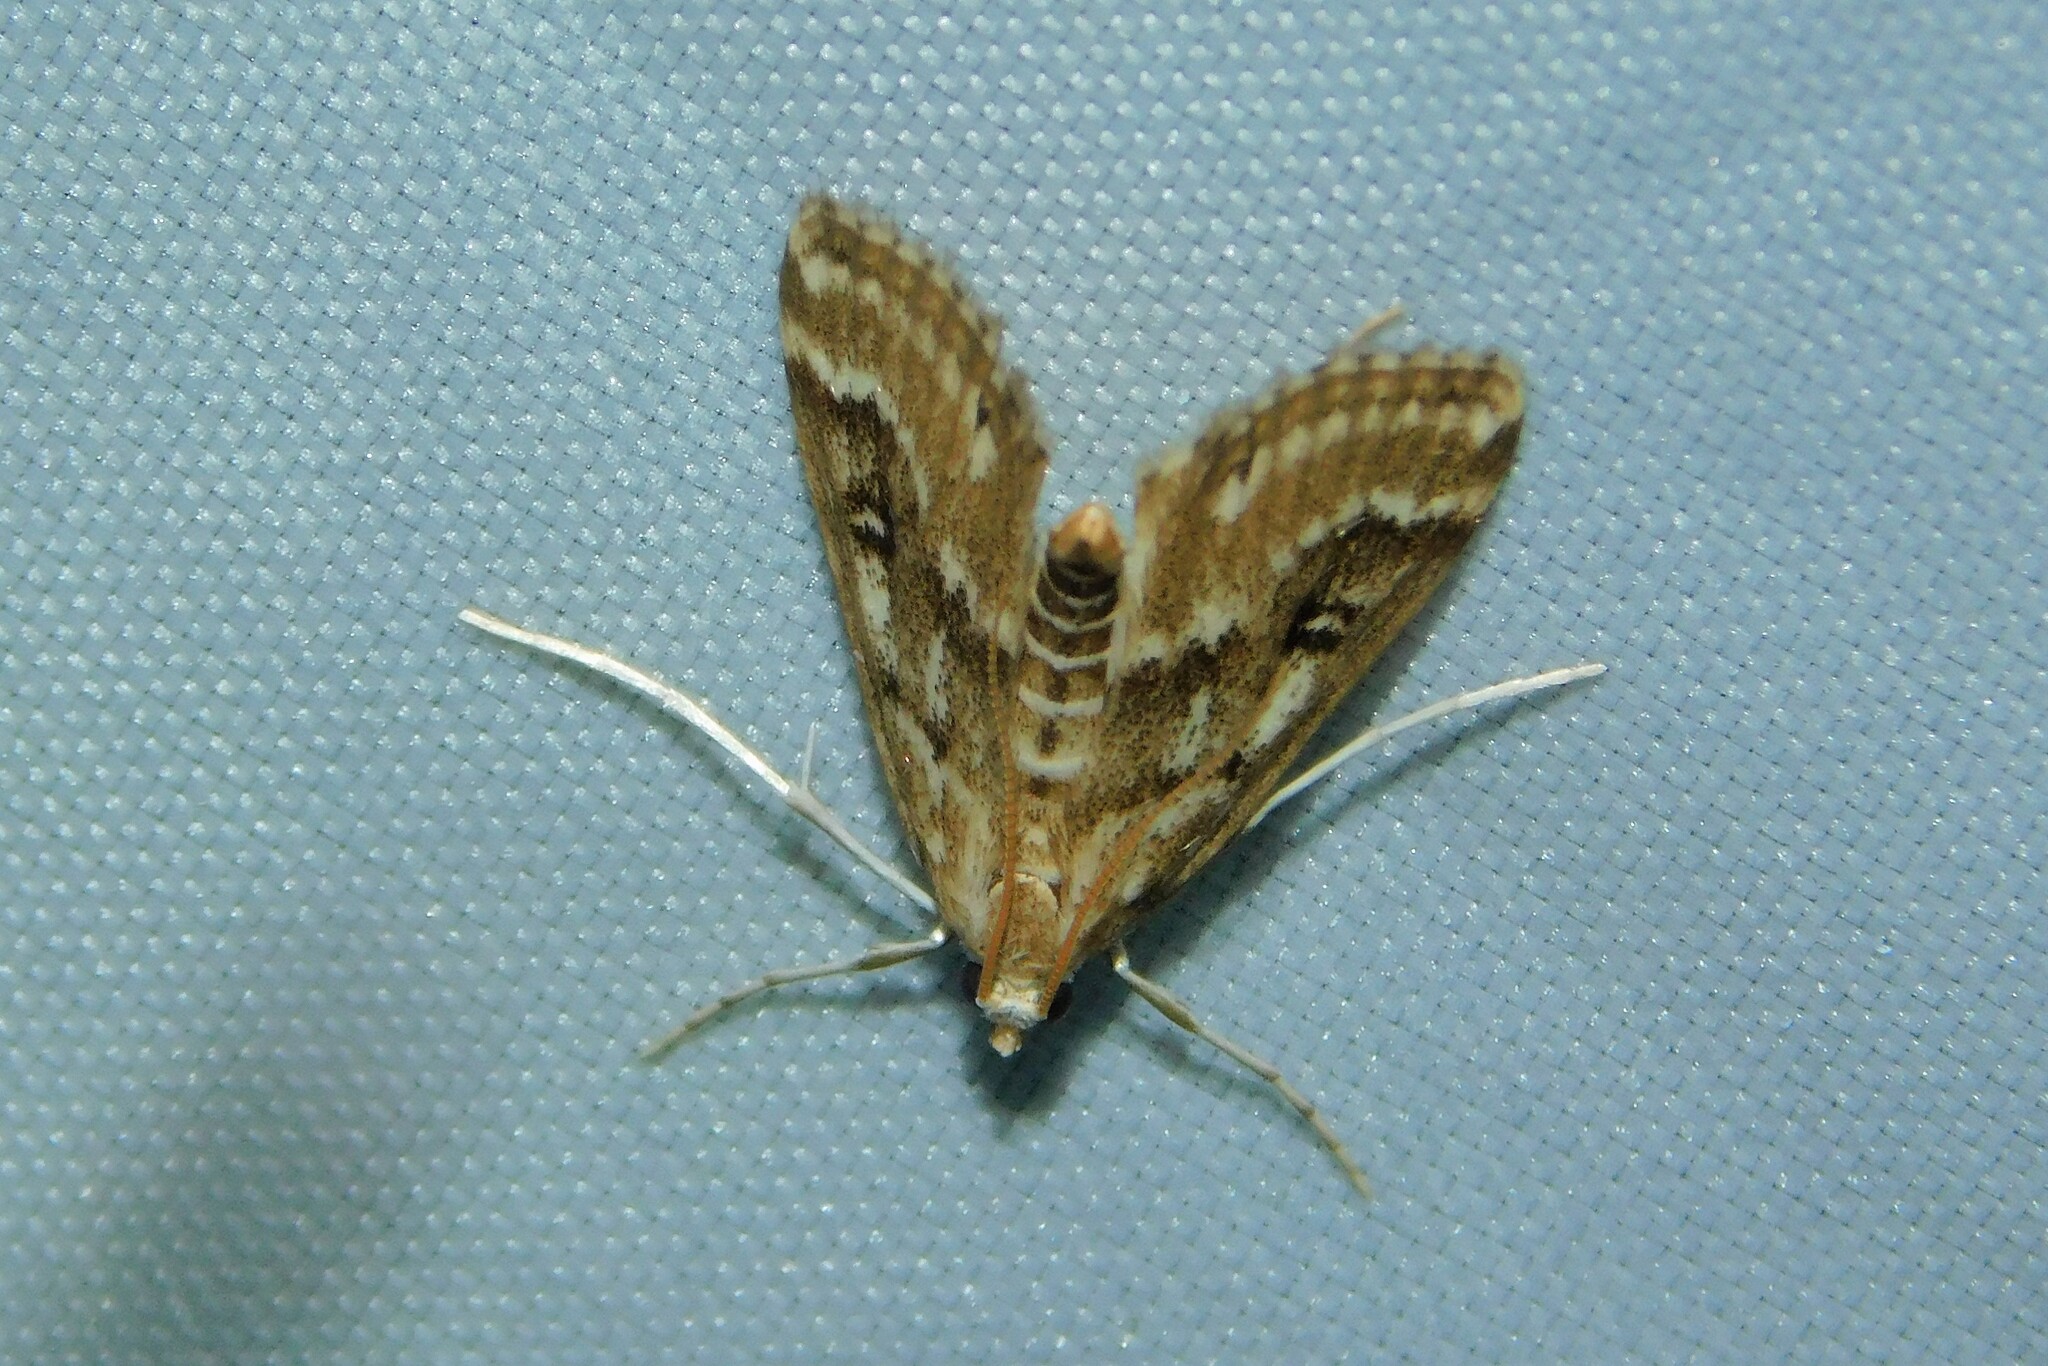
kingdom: Animalia
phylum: Arthropoda
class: Insecta
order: Lepidoptera
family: Crambidae
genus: Parapoynx
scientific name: Parapoynx stratiotata
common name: Ringed china-mark
